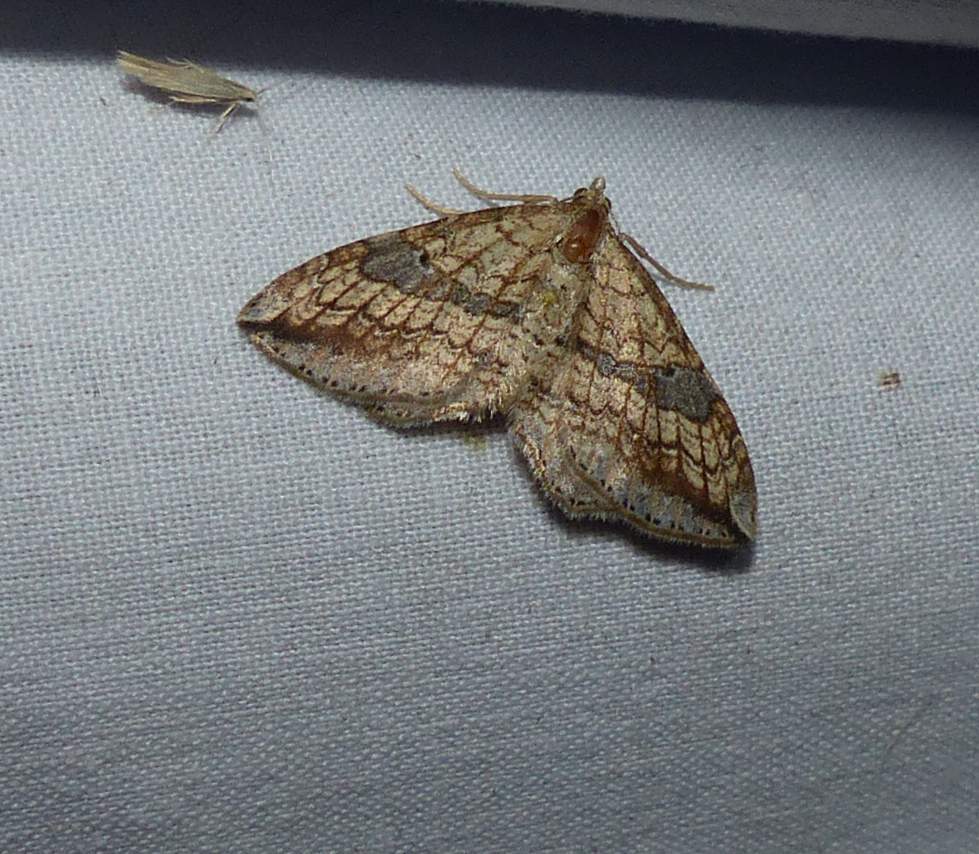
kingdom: Animalia
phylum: Arthropoda
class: Insecta
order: Lepidoptera
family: Geometridae
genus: Orthonama
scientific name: Orthonama evansi
